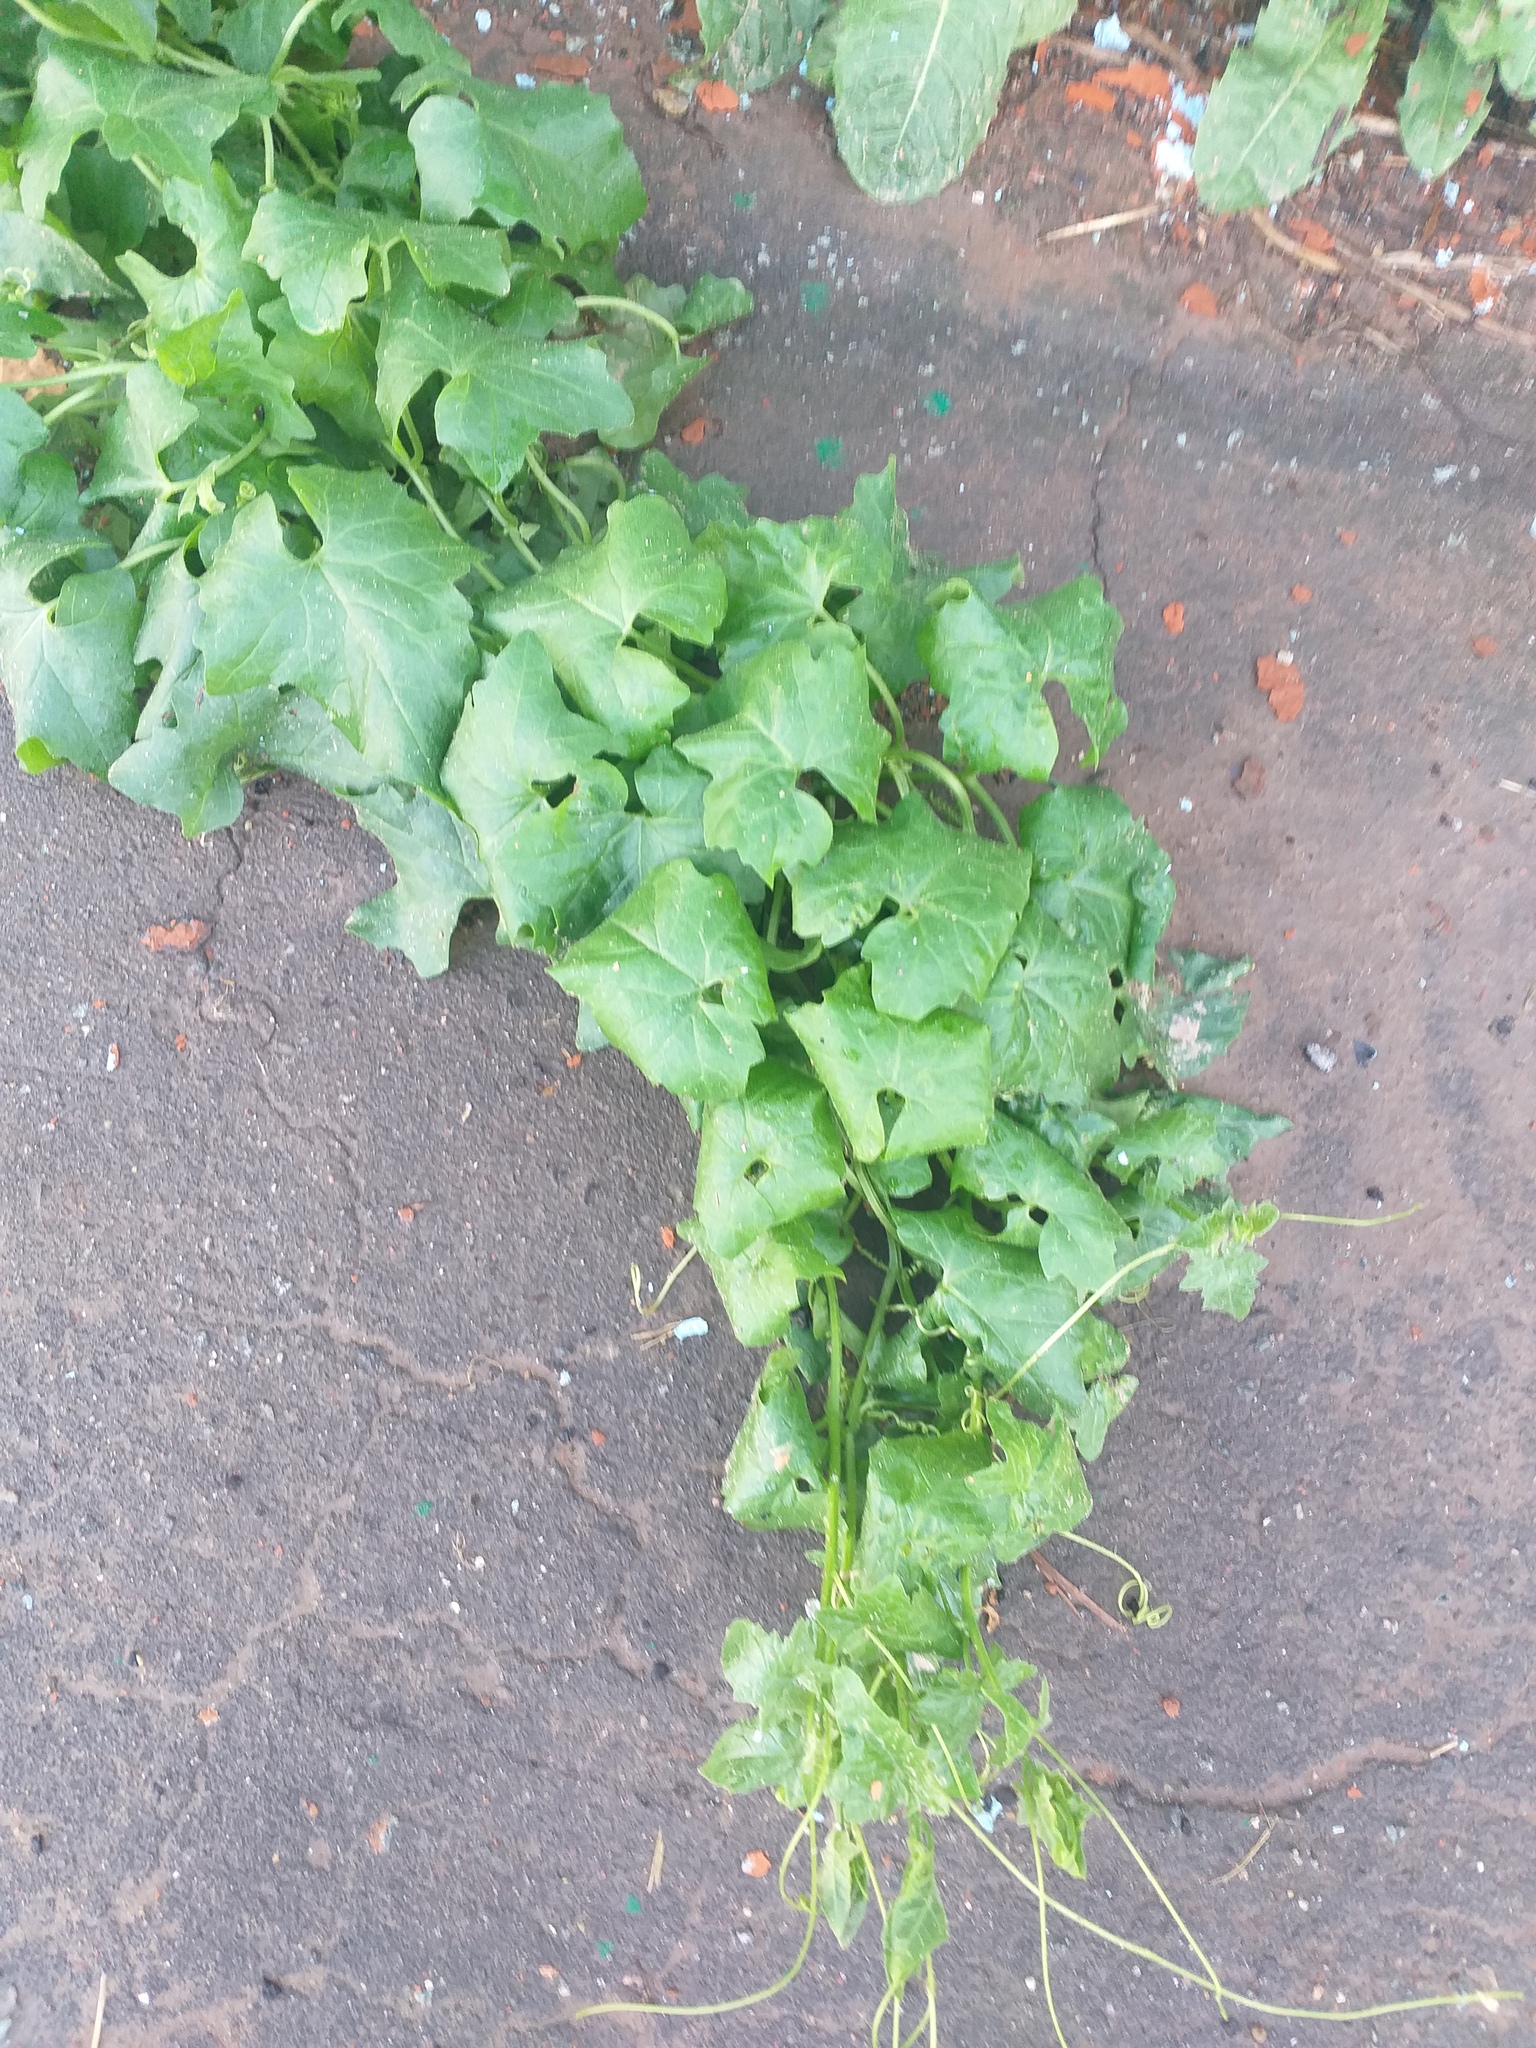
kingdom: Plantae
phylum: Tracheophyta
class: Magnoliopsida
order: Cucurbitales
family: Cucurbitaceae
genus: Bryonia
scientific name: Bryonia alba
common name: White bryony
